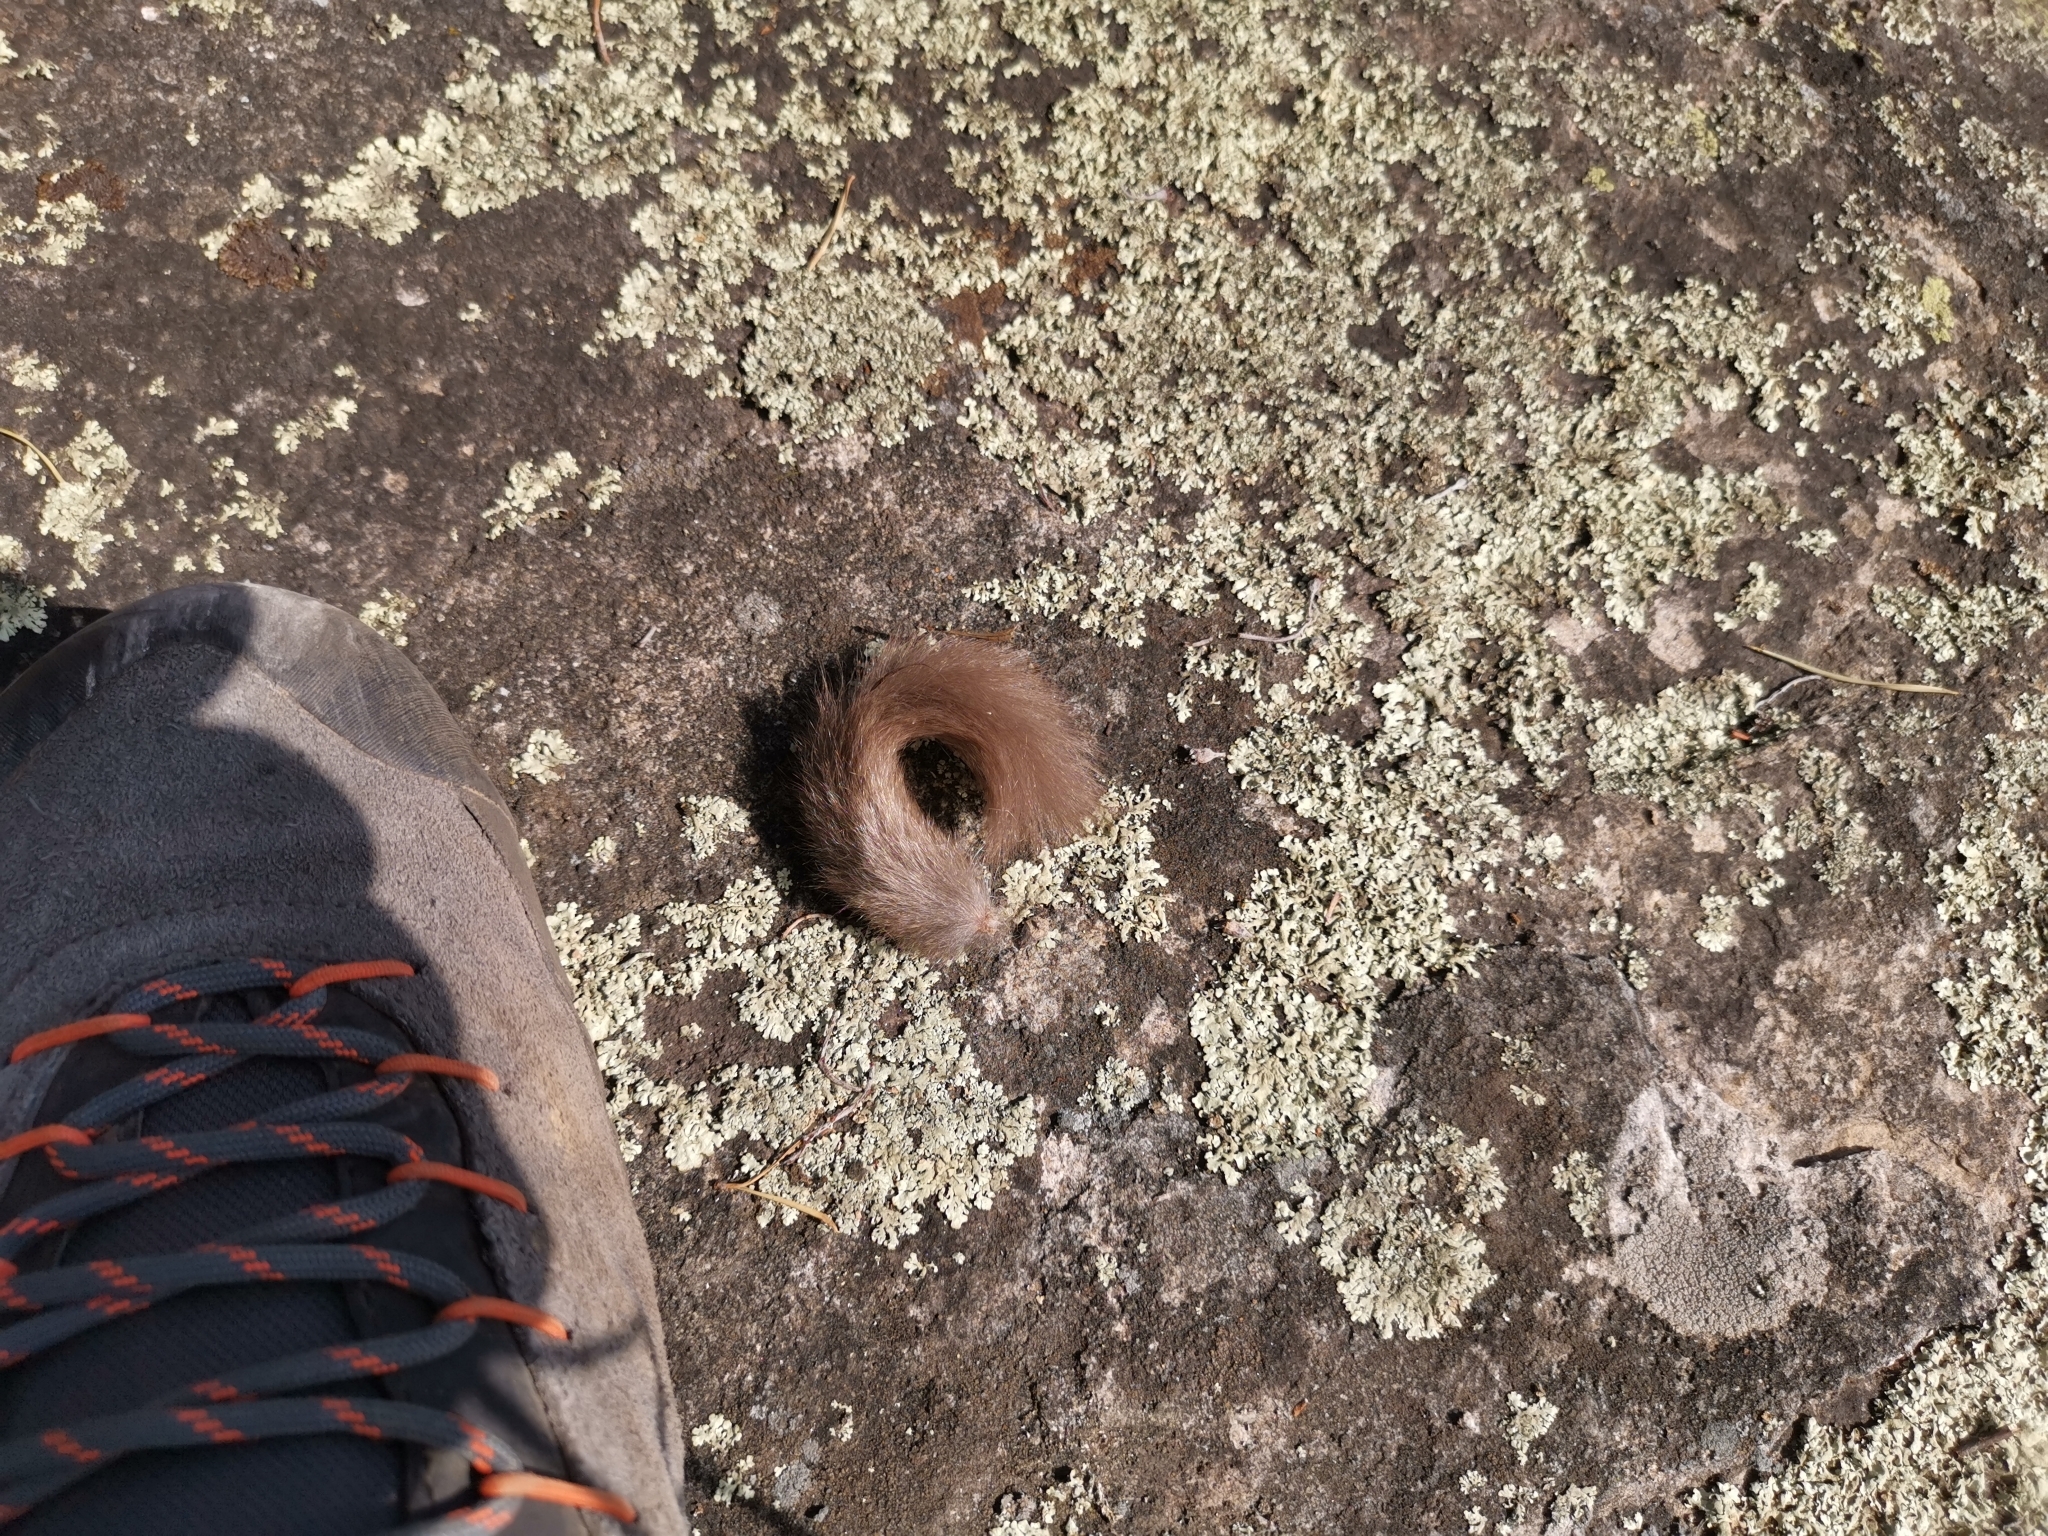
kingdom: Animalia
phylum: Chordata
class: Mammalia
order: Rodentia
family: Gliridae
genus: Glis
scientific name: Glis glis
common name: Fat dormouse
